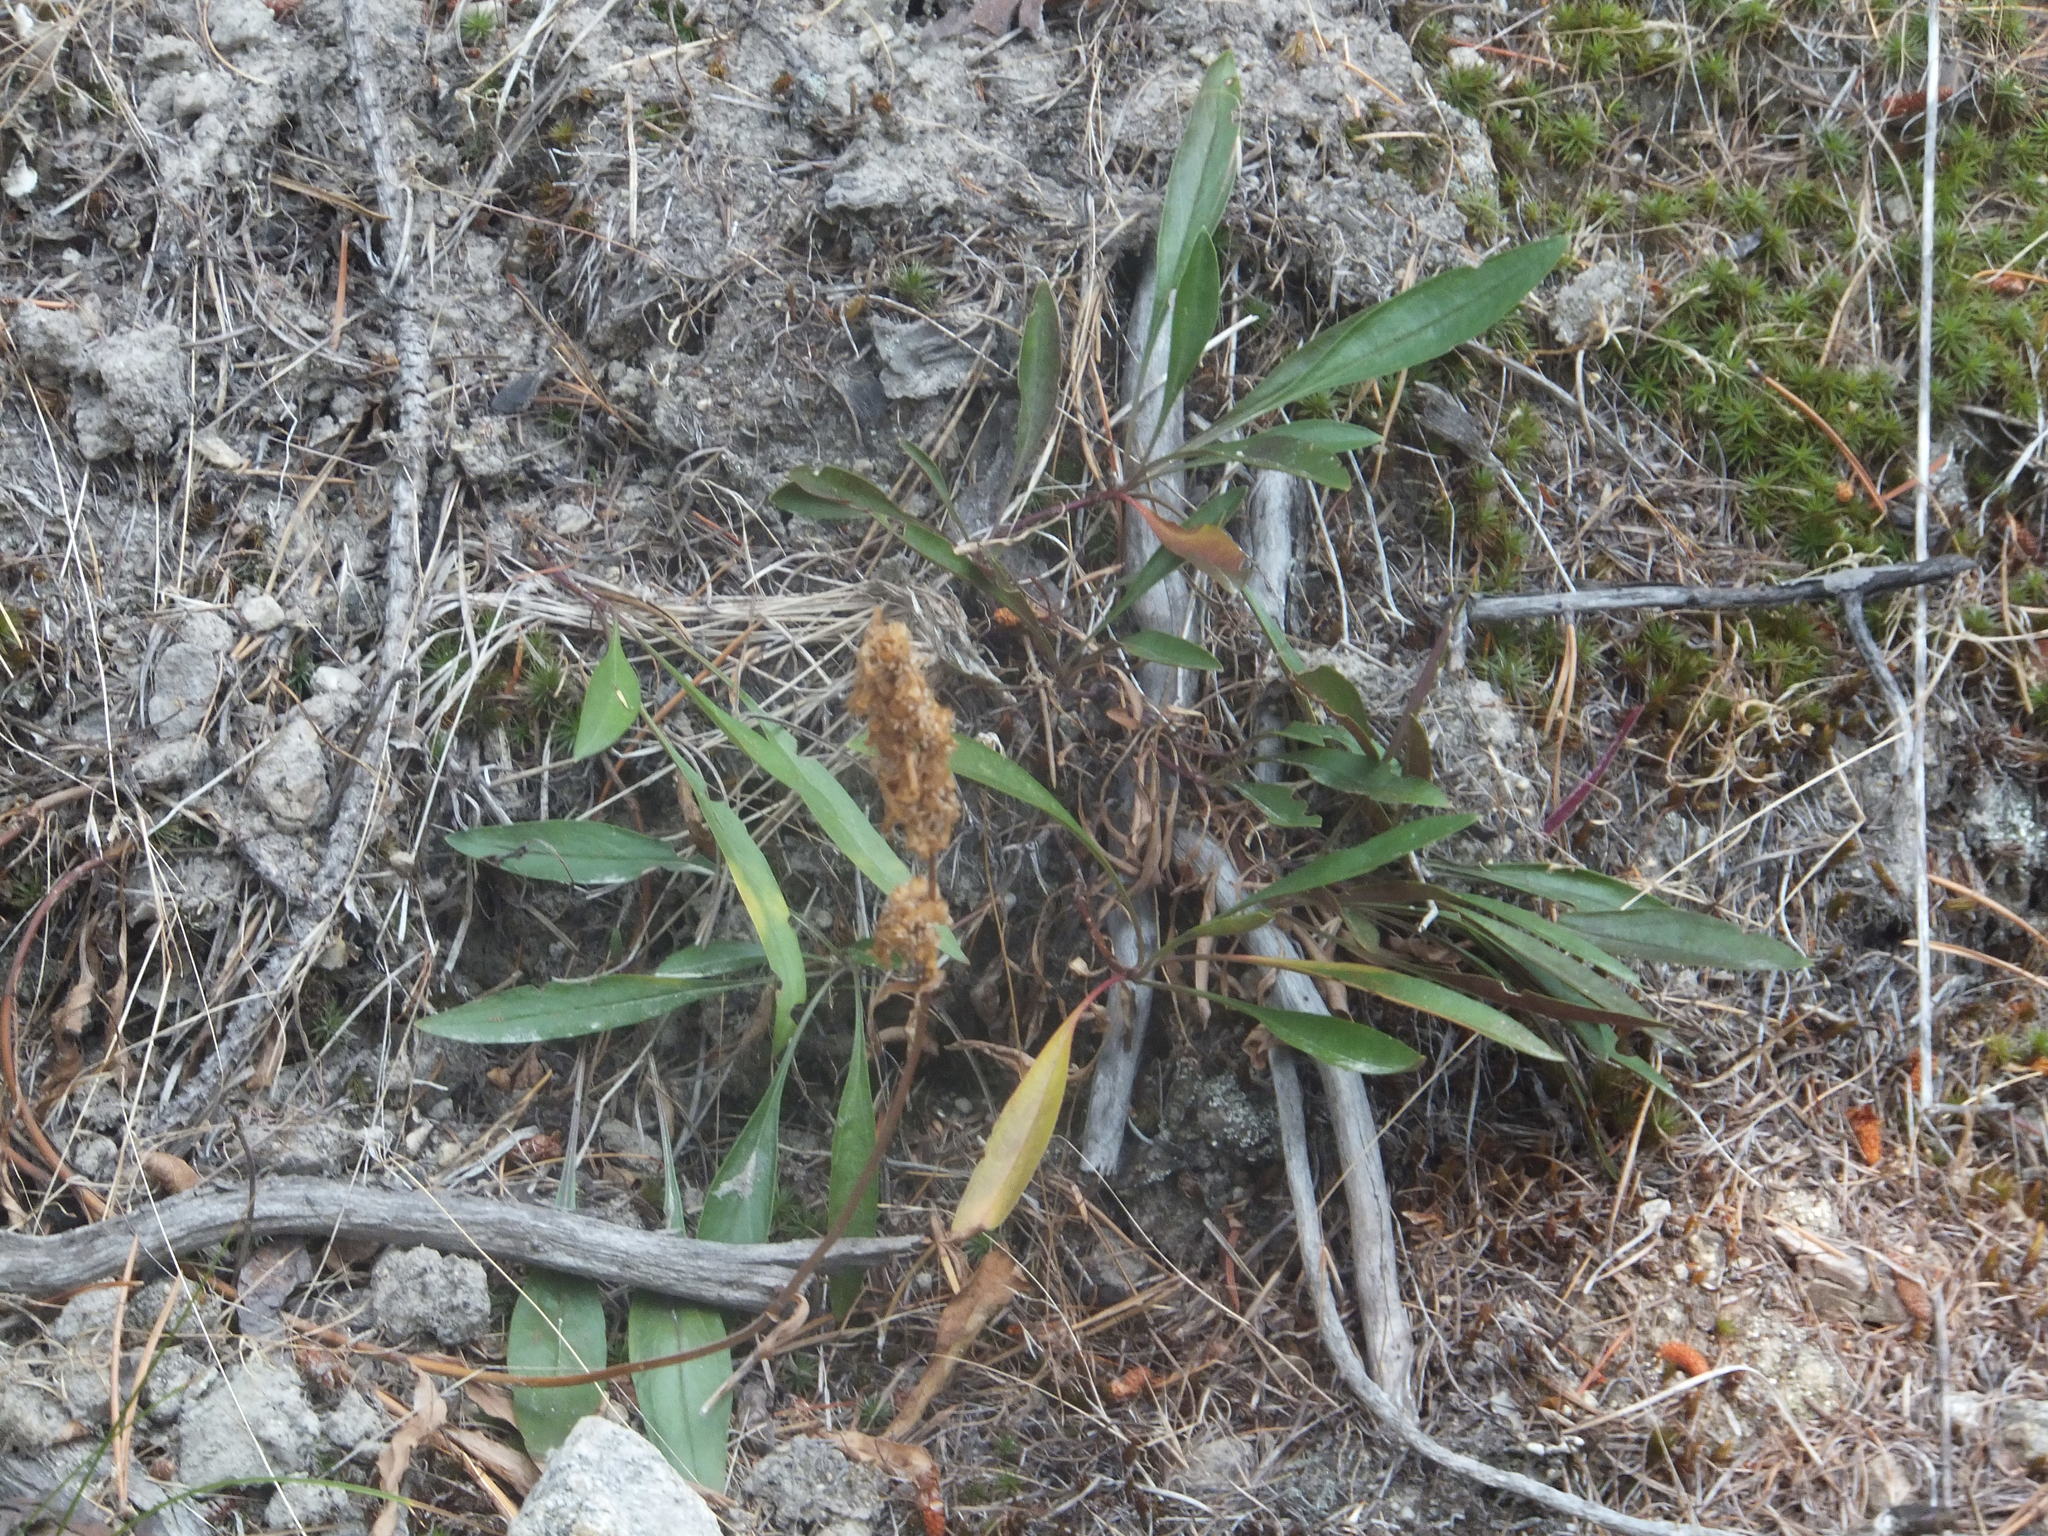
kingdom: Plantae
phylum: Tracheophyta
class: Magnoliopsida
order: Lamiales
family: Plantaginaceae
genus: Penstemon
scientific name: Penstemon confertus
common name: Lesser yellow beardtongue
